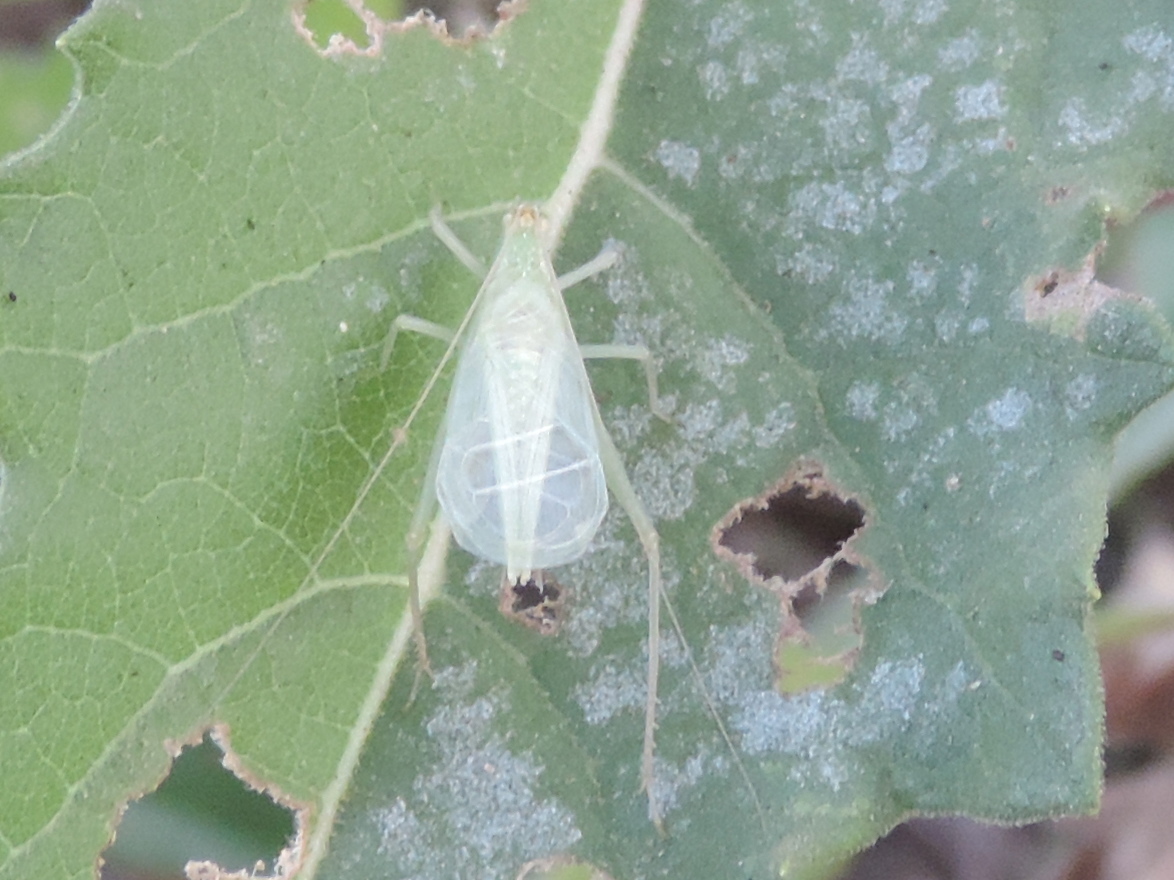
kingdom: Animalia
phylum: Arthropoda
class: Insecta
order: Orthoptera
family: Gryllidae
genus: Oecanthus
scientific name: Oecanthus
